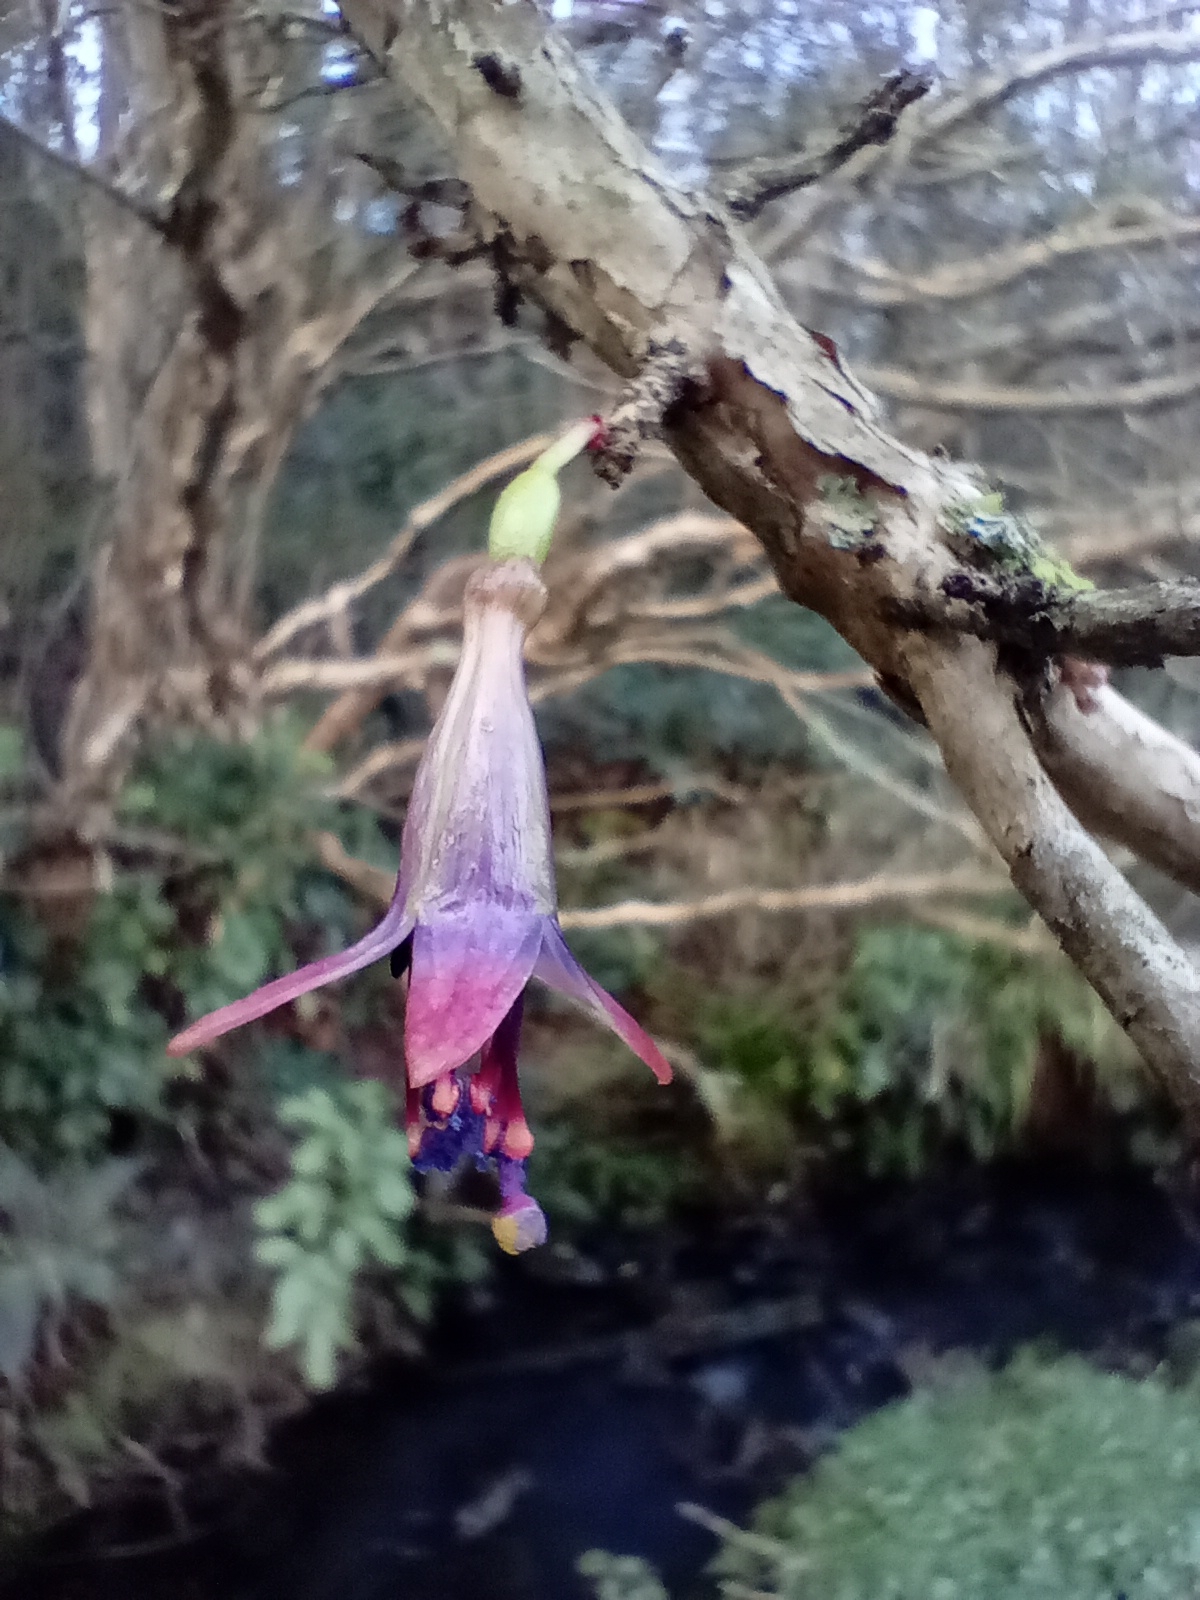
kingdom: Plantae
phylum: Tracheophyta
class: Magnoliopsida
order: Myrtales
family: Onagraceae
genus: Fuchsia
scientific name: Fuchsia excorticata
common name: Tree fuchsia
